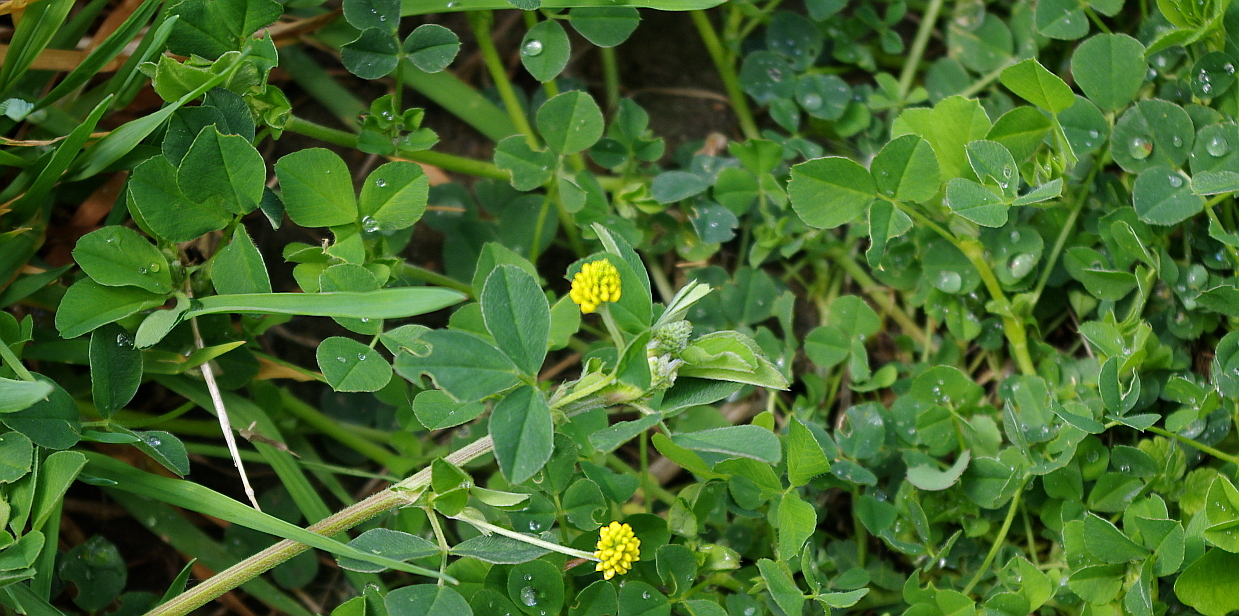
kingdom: Plantae
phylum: Tracheophyta
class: Magnoliopsida
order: Fabales
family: Fabaceae
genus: Medicago
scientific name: Medicago lupulina
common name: Black medick
